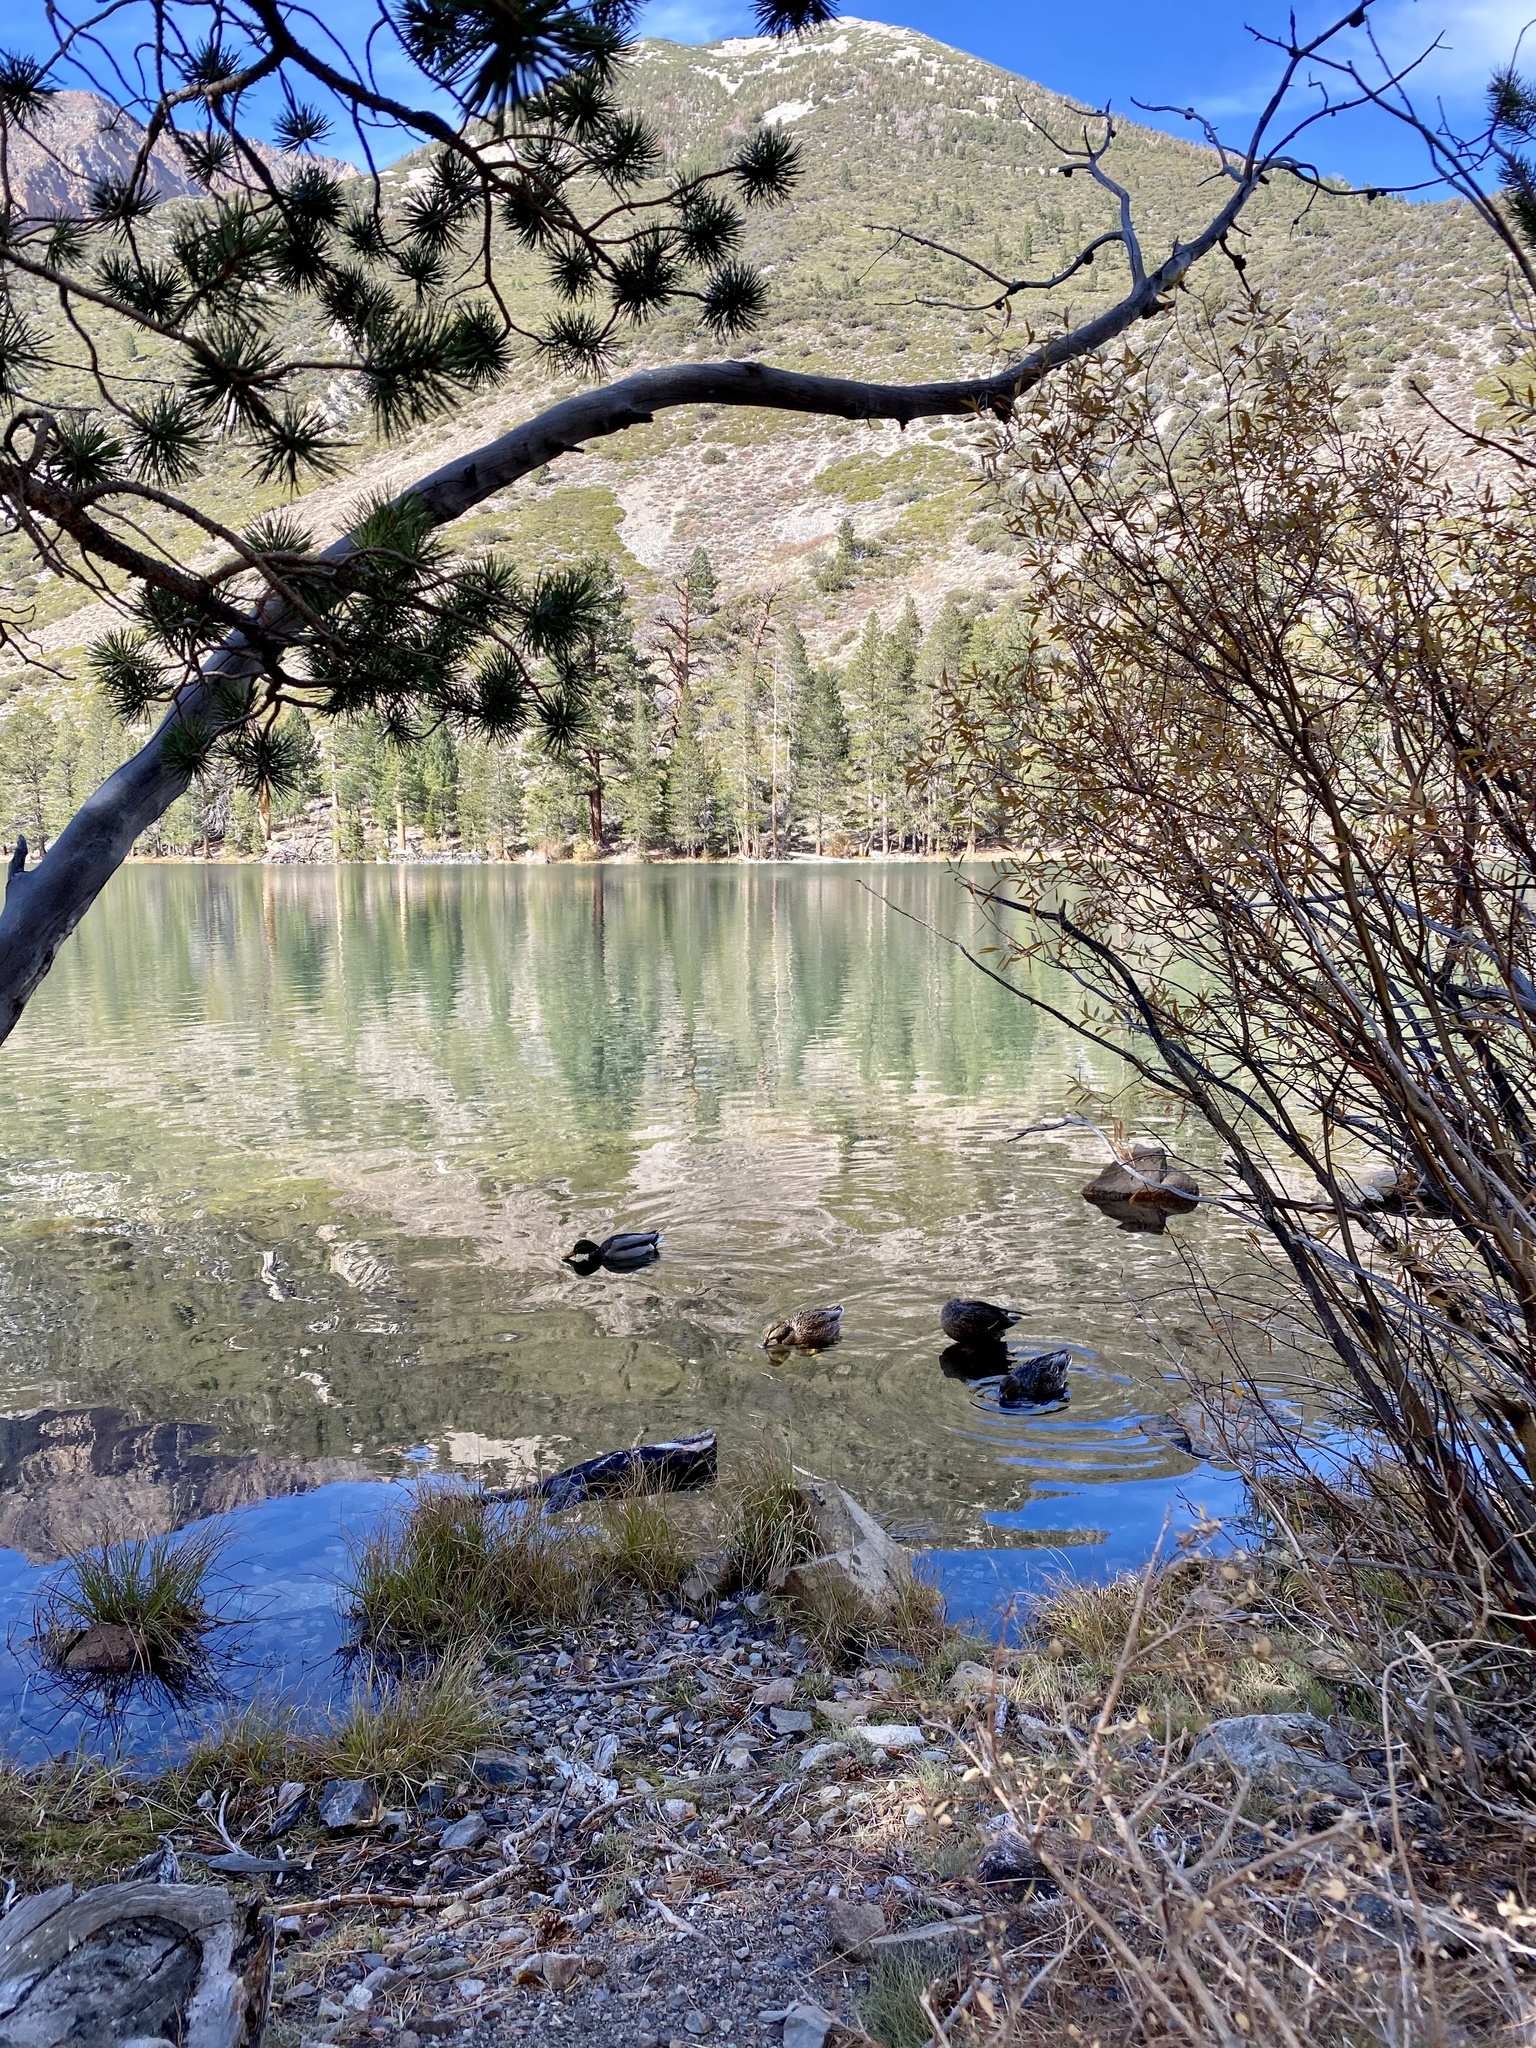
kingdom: Animalia
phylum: Chordata
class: Aves
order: Anseriformes
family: Anatidae
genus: Anas
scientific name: Anas platyrhynchos
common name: Mallard
